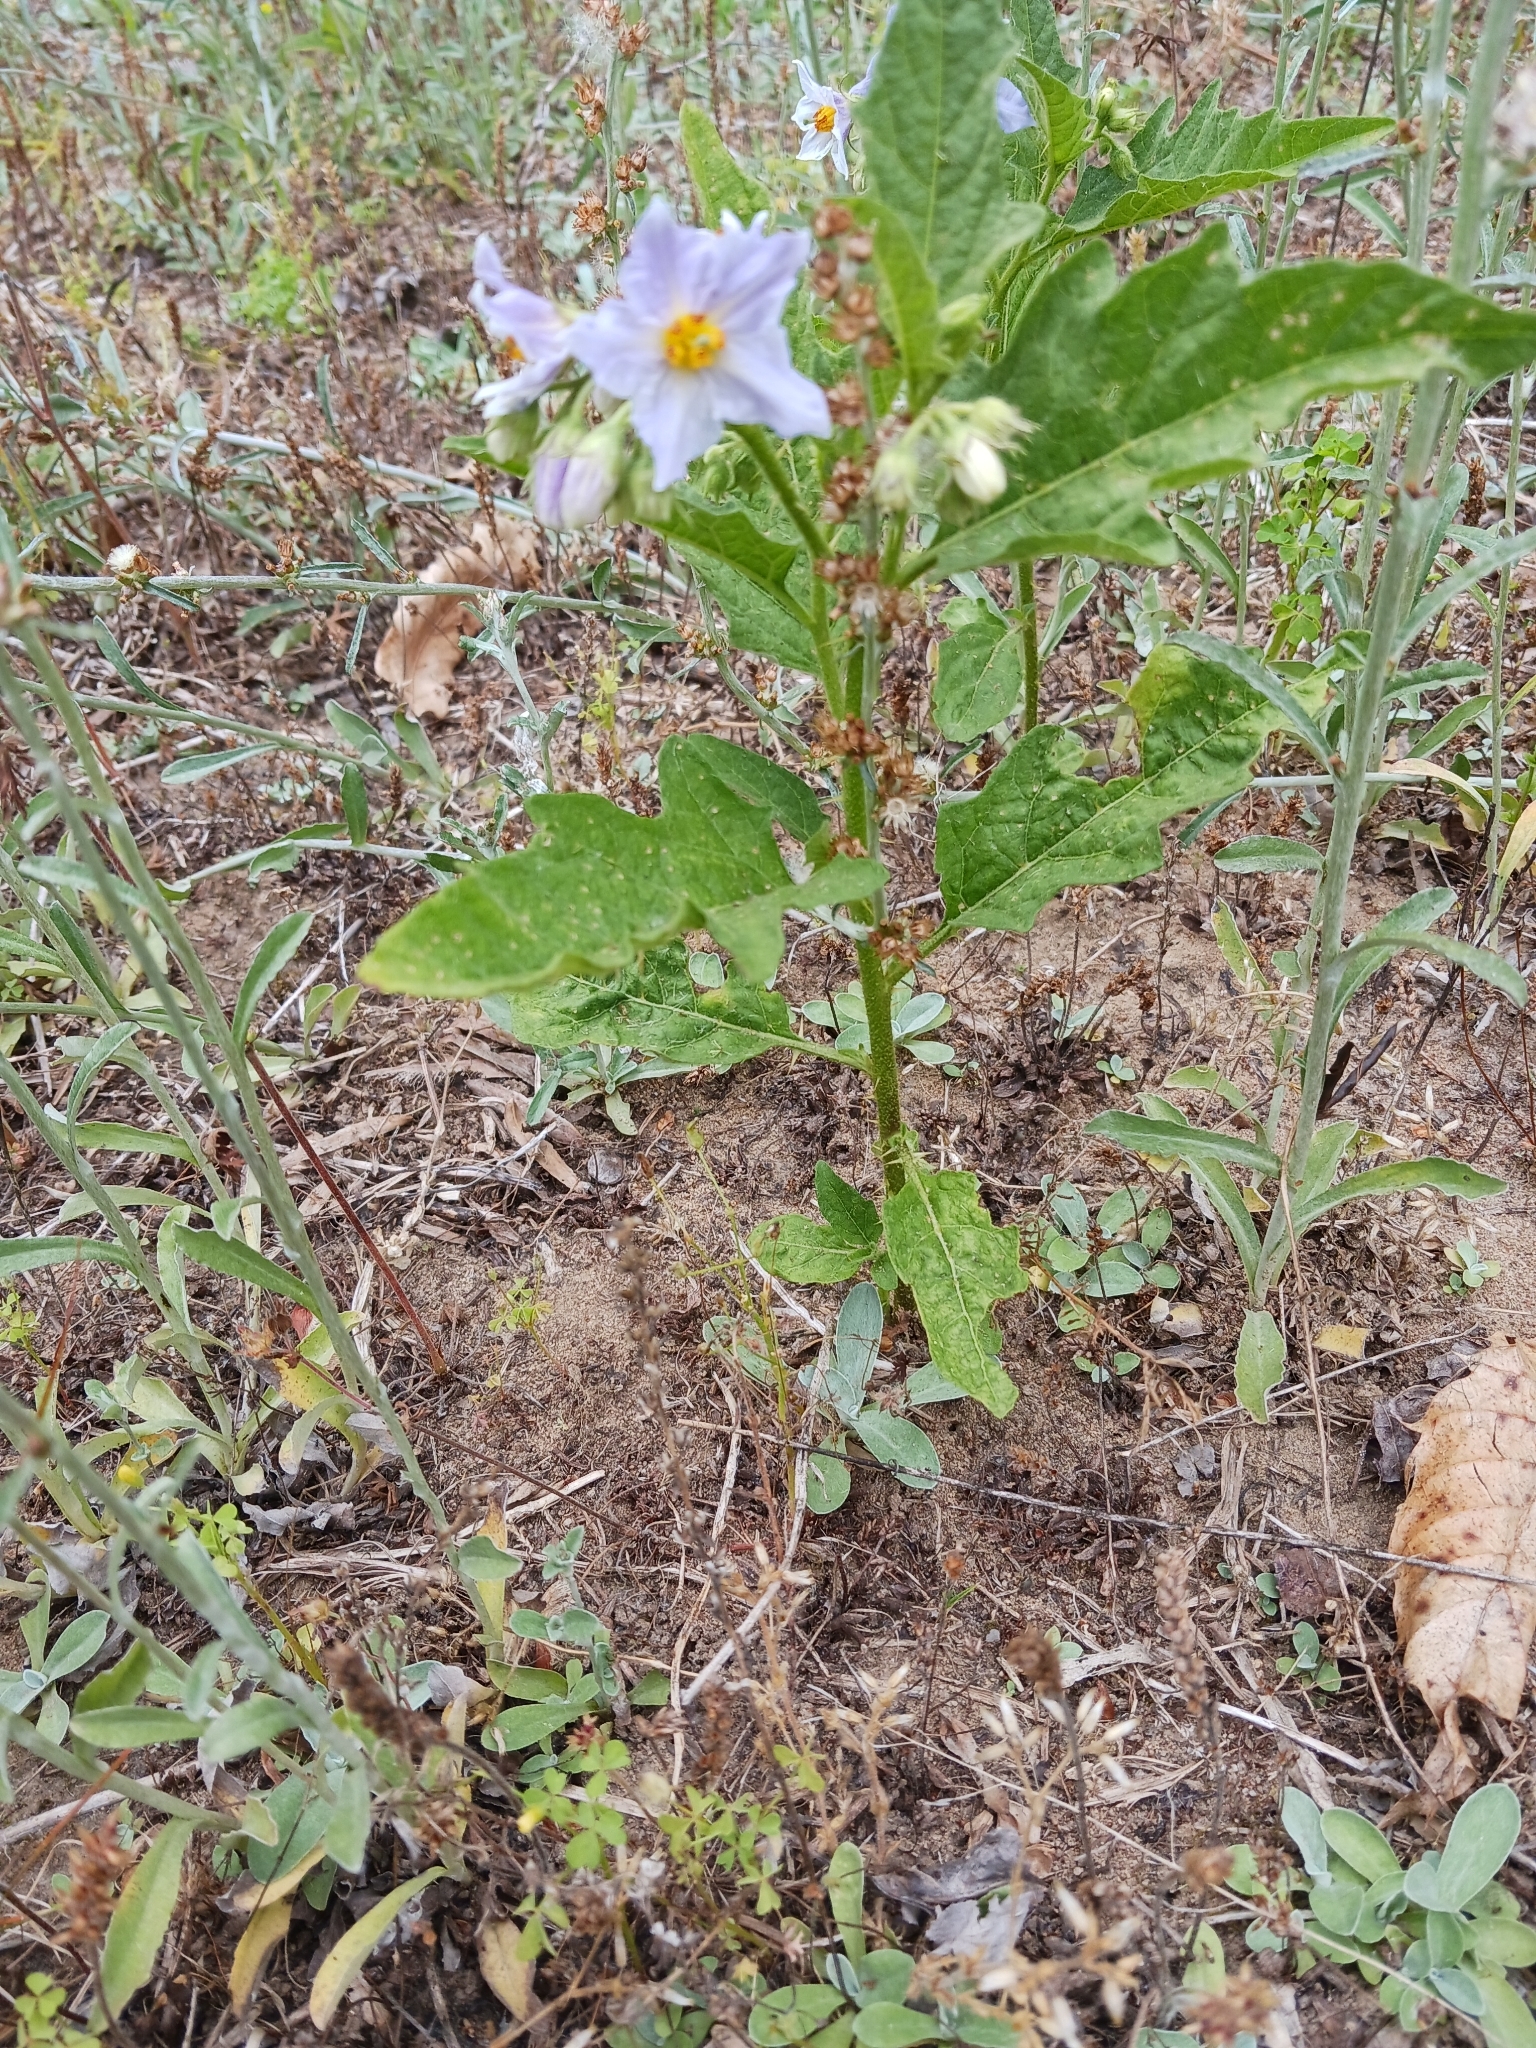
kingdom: Plantae
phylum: Tracheophyta
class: Magnoliopsida
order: Solanales
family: Solanaceae
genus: Solanum
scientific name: Solanum carolinense
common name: Horse-nettle
